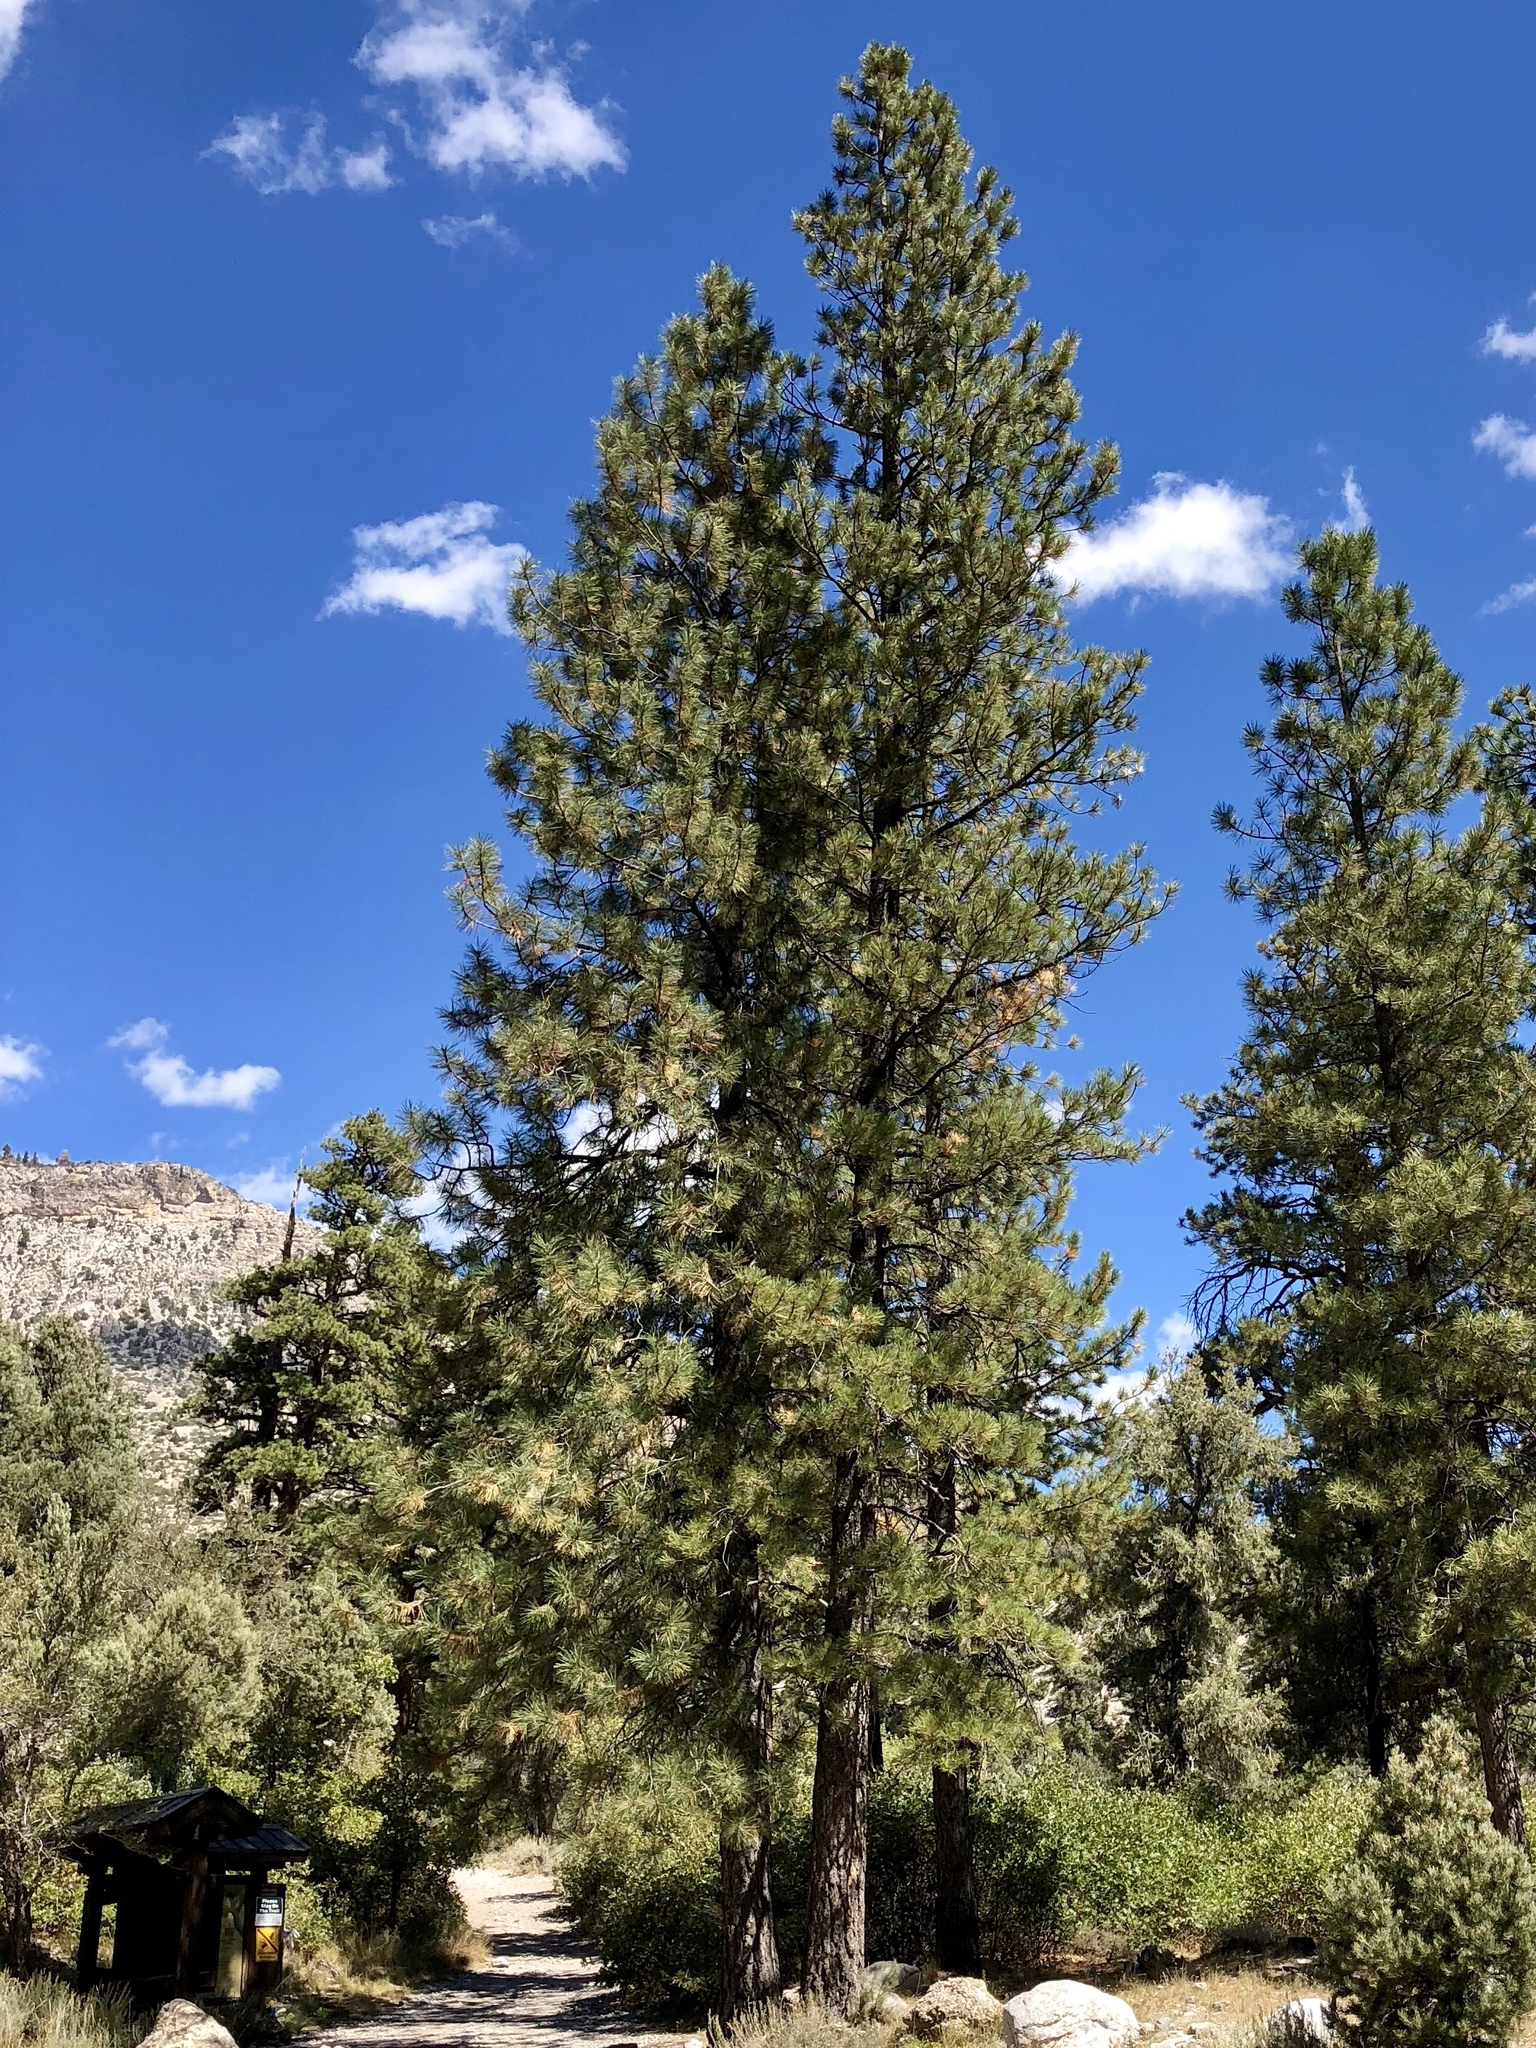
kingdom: Plantae
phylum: Tracheophyta
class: Pinopsida
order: Pinales
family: Pinaceae
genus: Pinus
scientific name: Pinus ponderosa
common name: Western yellow-pine
